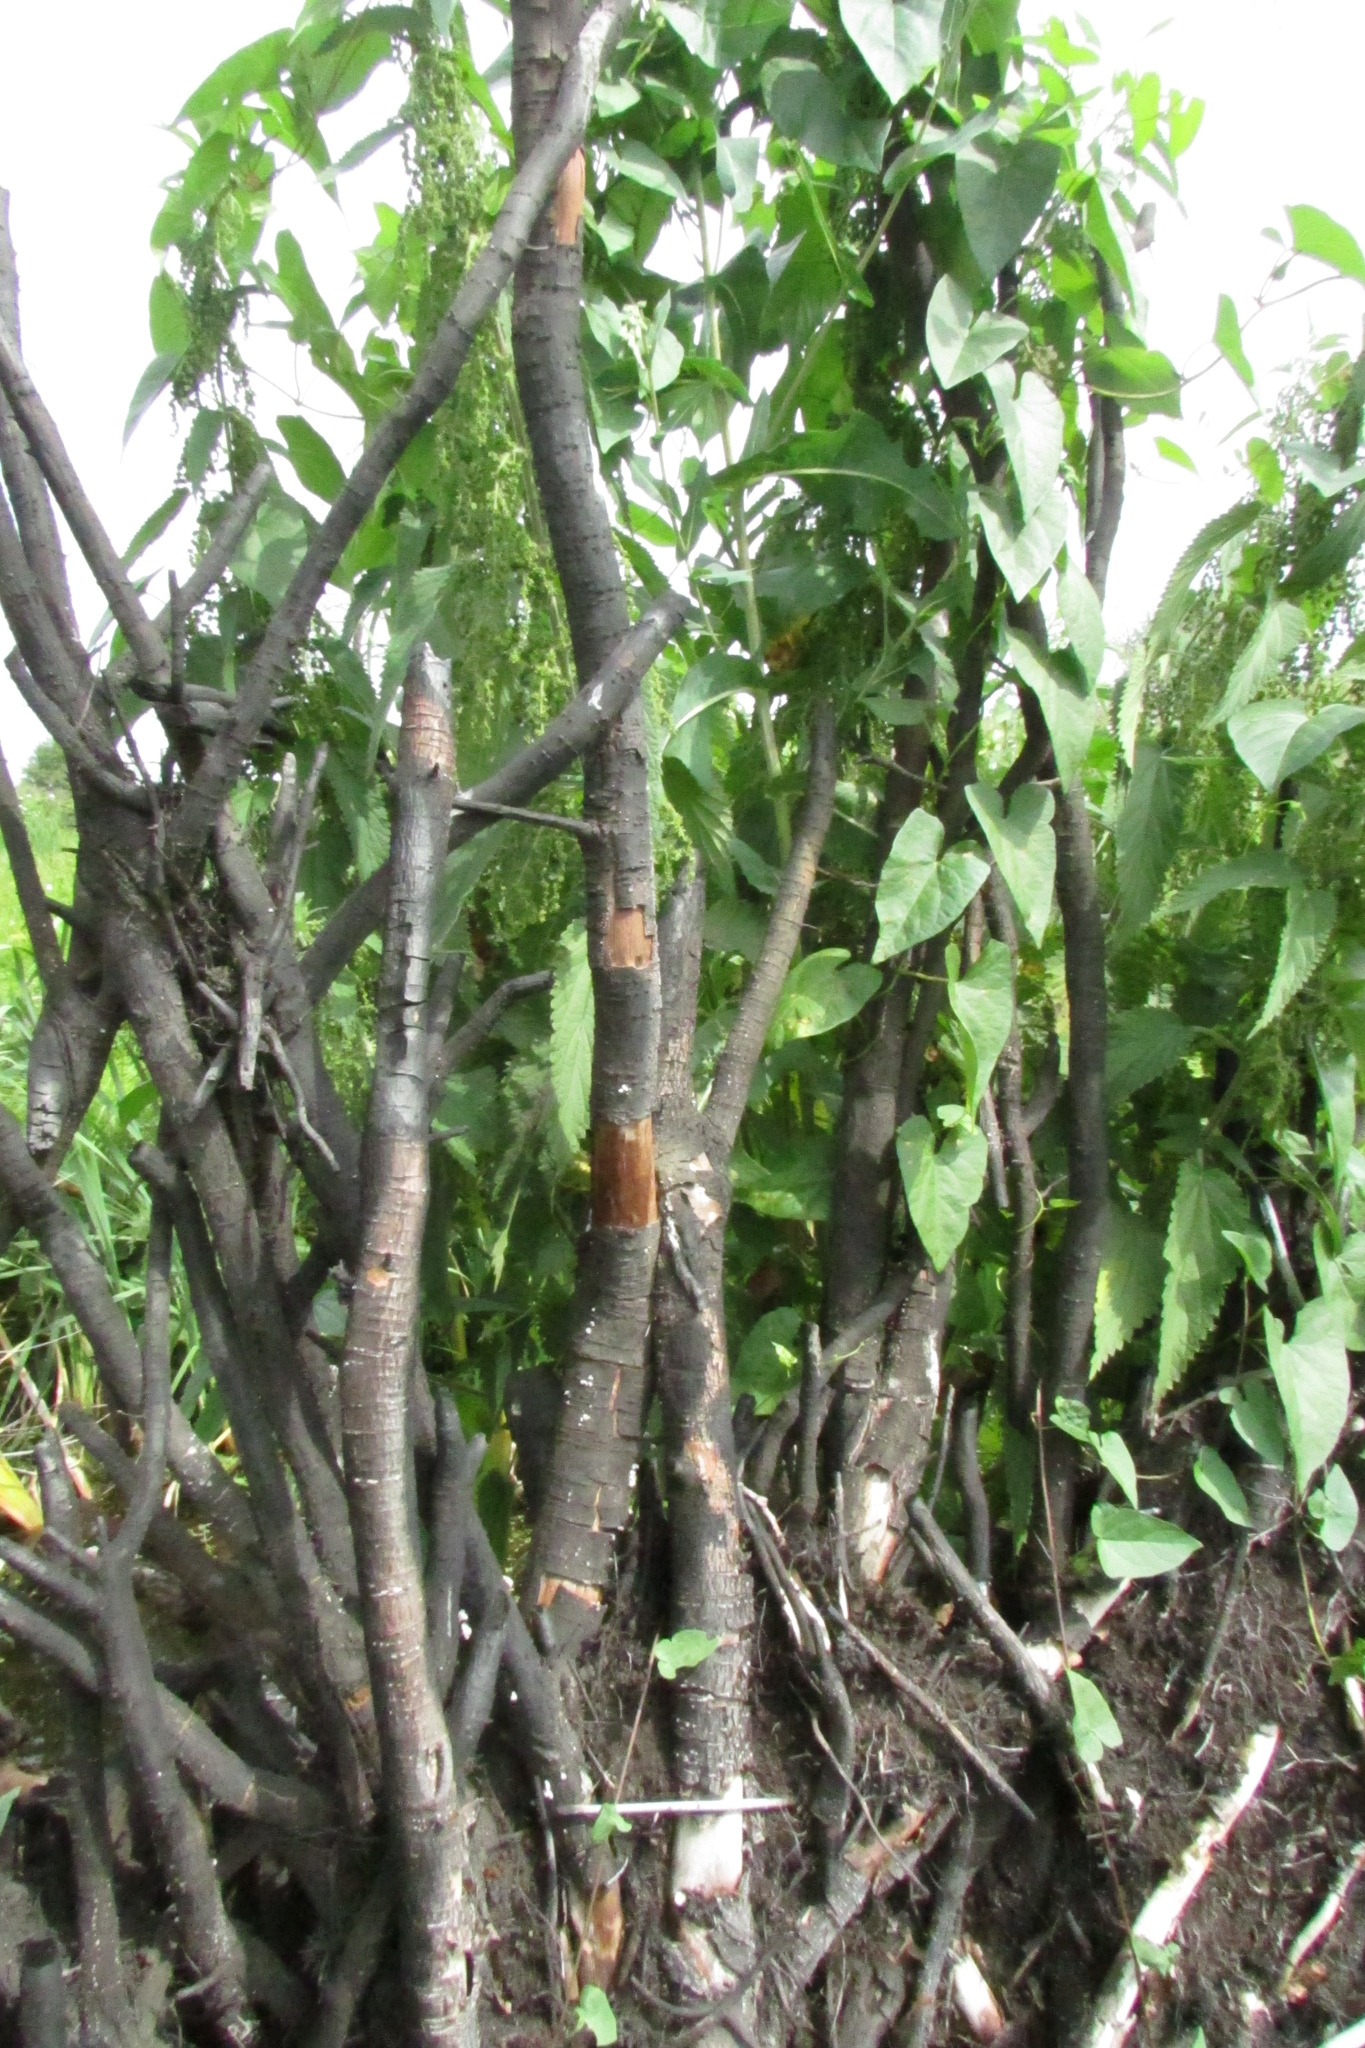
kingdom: Plantae
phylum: Tracheophyta
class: Magnoliopsida
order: Solanales
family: Convolvulaceae
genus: Calystegia
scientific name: Calystegia sepium
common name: Hedge bindweed
